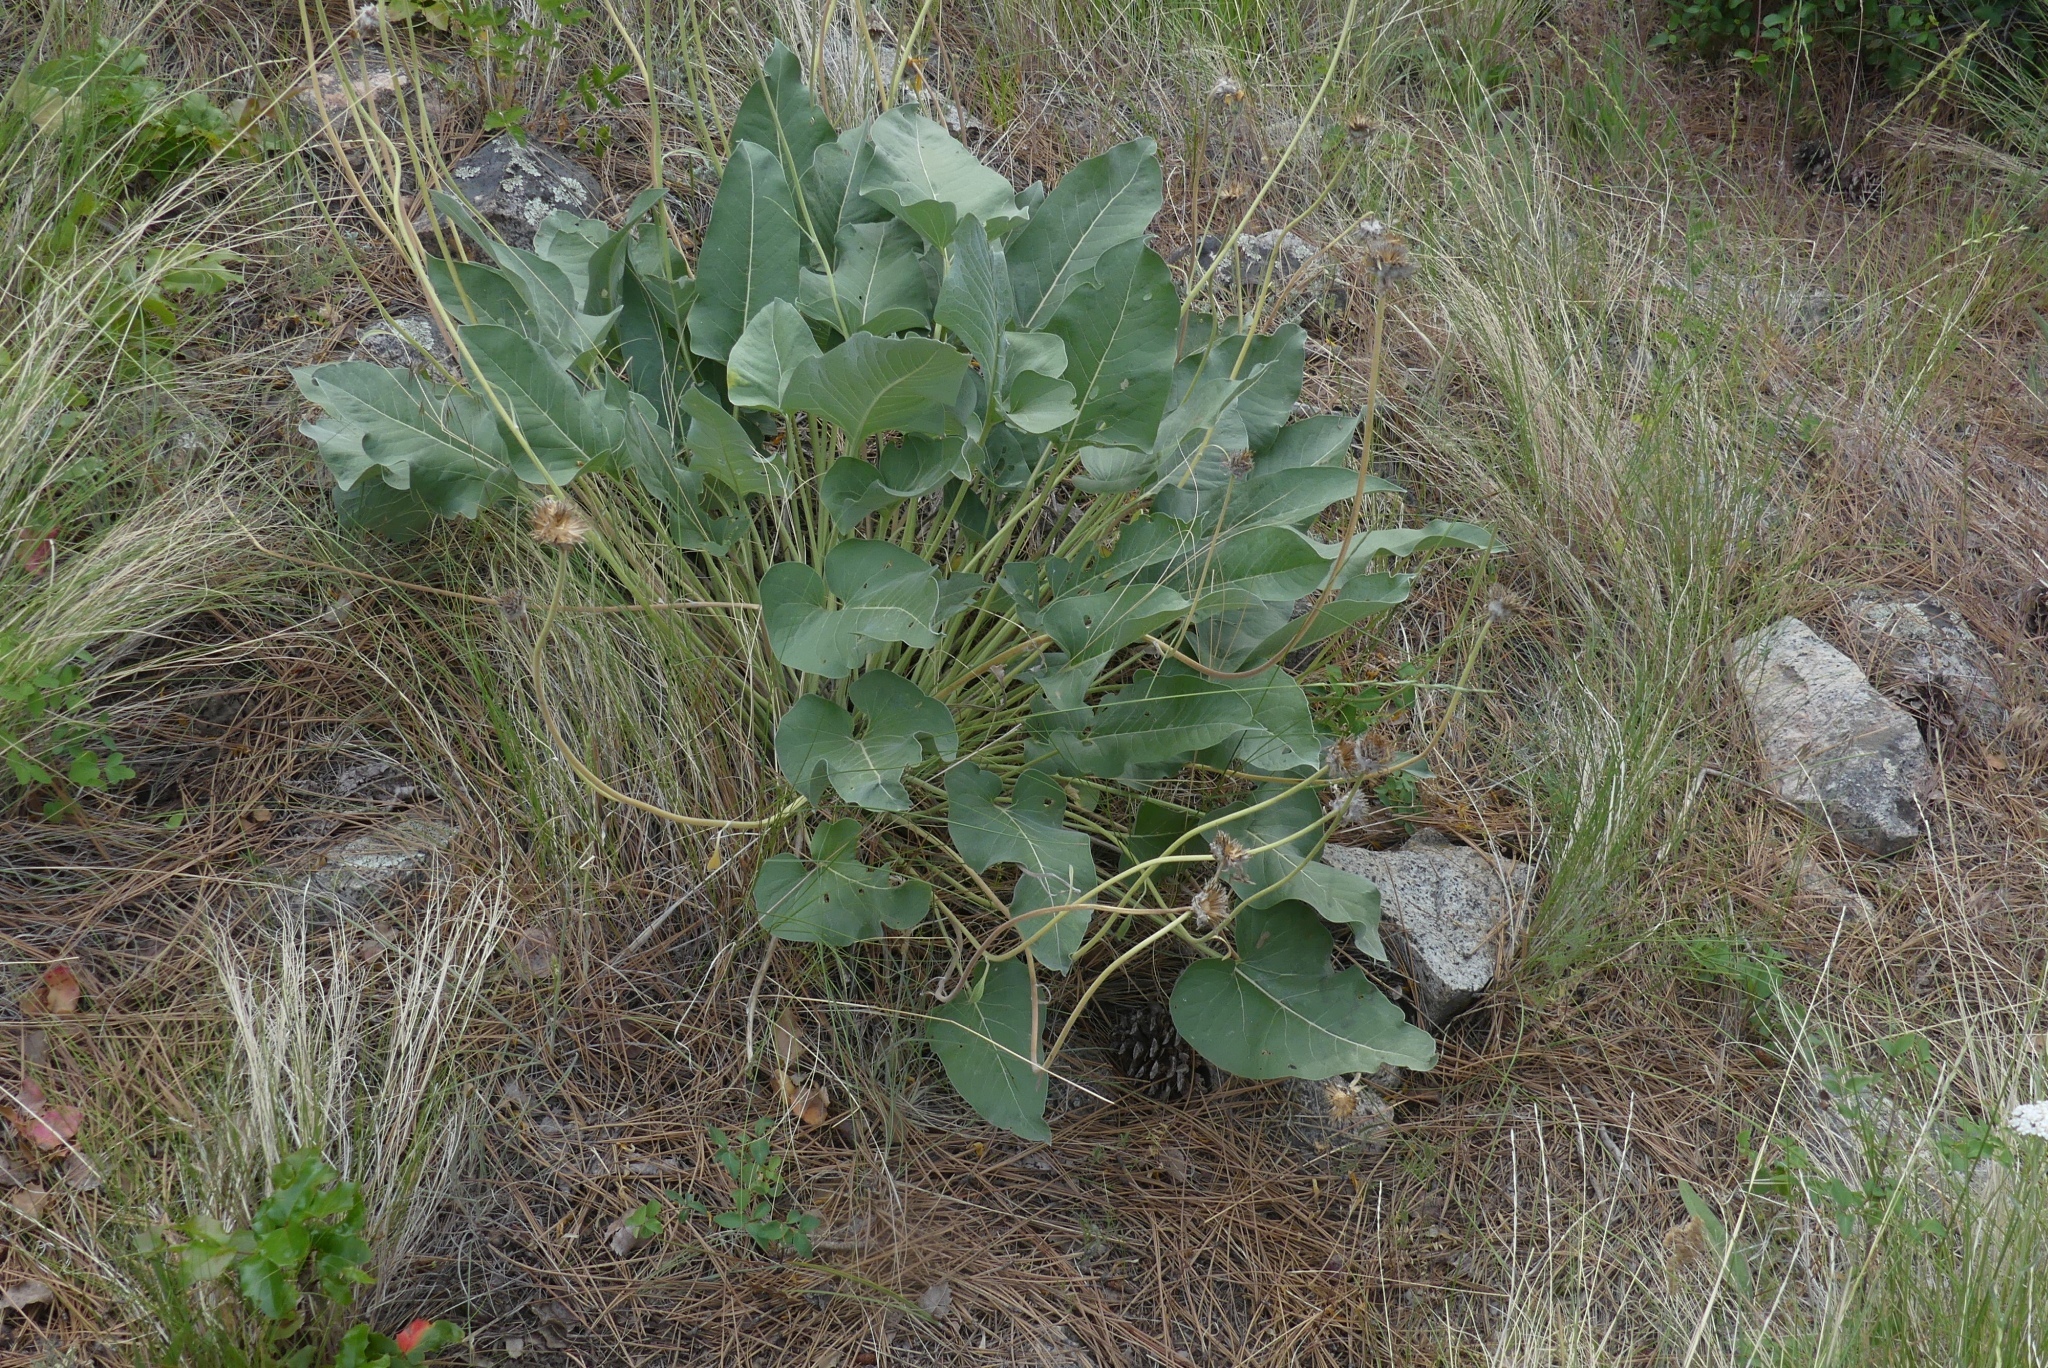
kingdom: Plantae
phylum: Tracheophyta
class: Magnoliopsida
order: Asterales
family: Asteraceae
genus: Wyethia
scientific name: Wyethia sagittata
